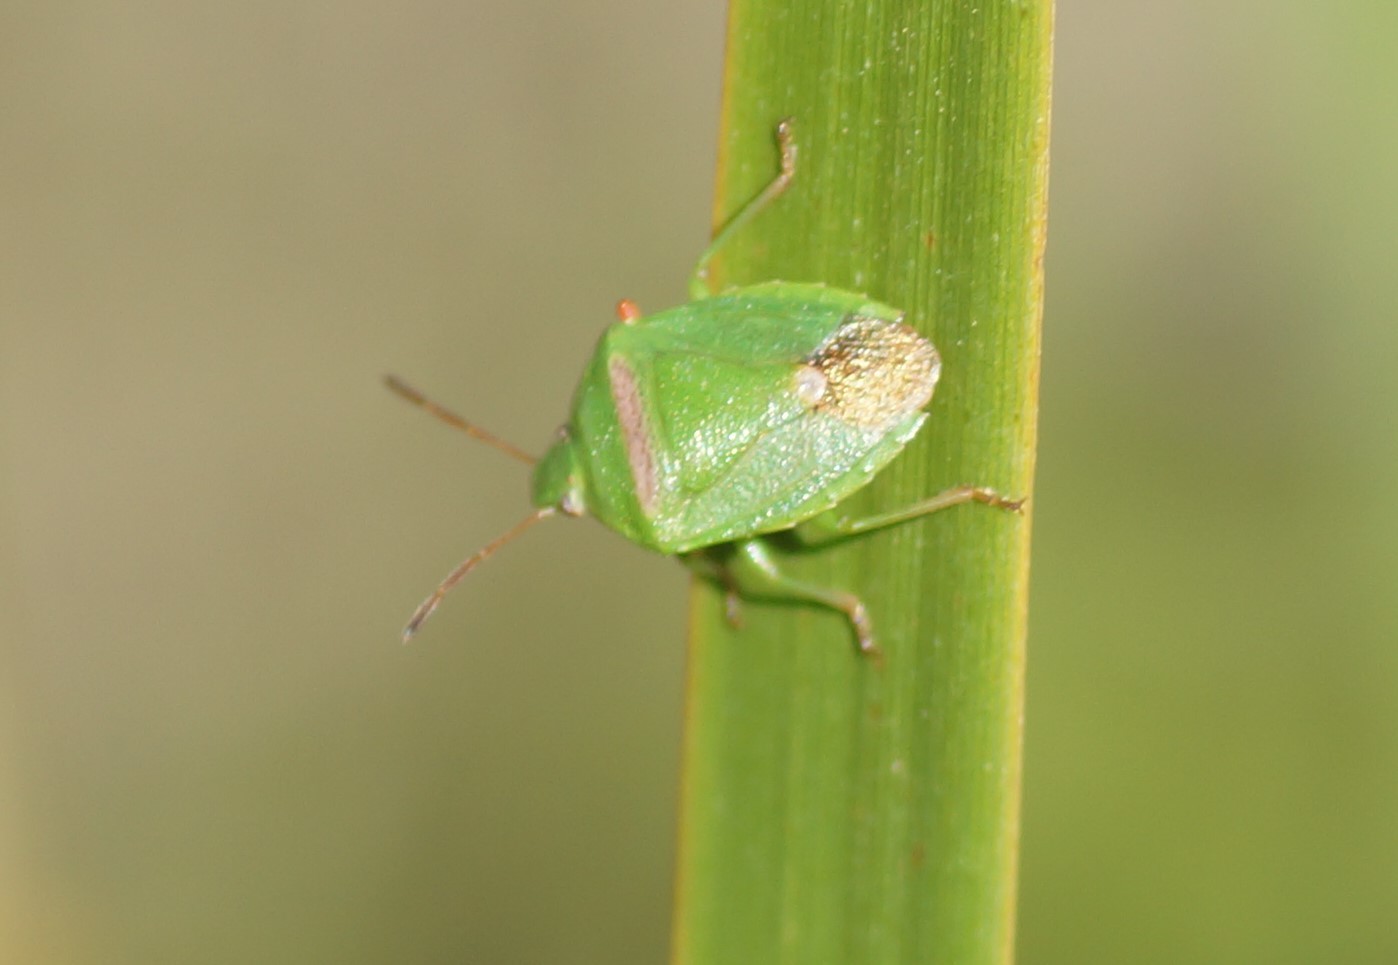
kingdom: Animalia
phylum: Arthropoda
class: Insecta
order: Hemiptera
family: Pentatomidae
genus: Ocirrhoe
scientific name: Ocirrhoe
